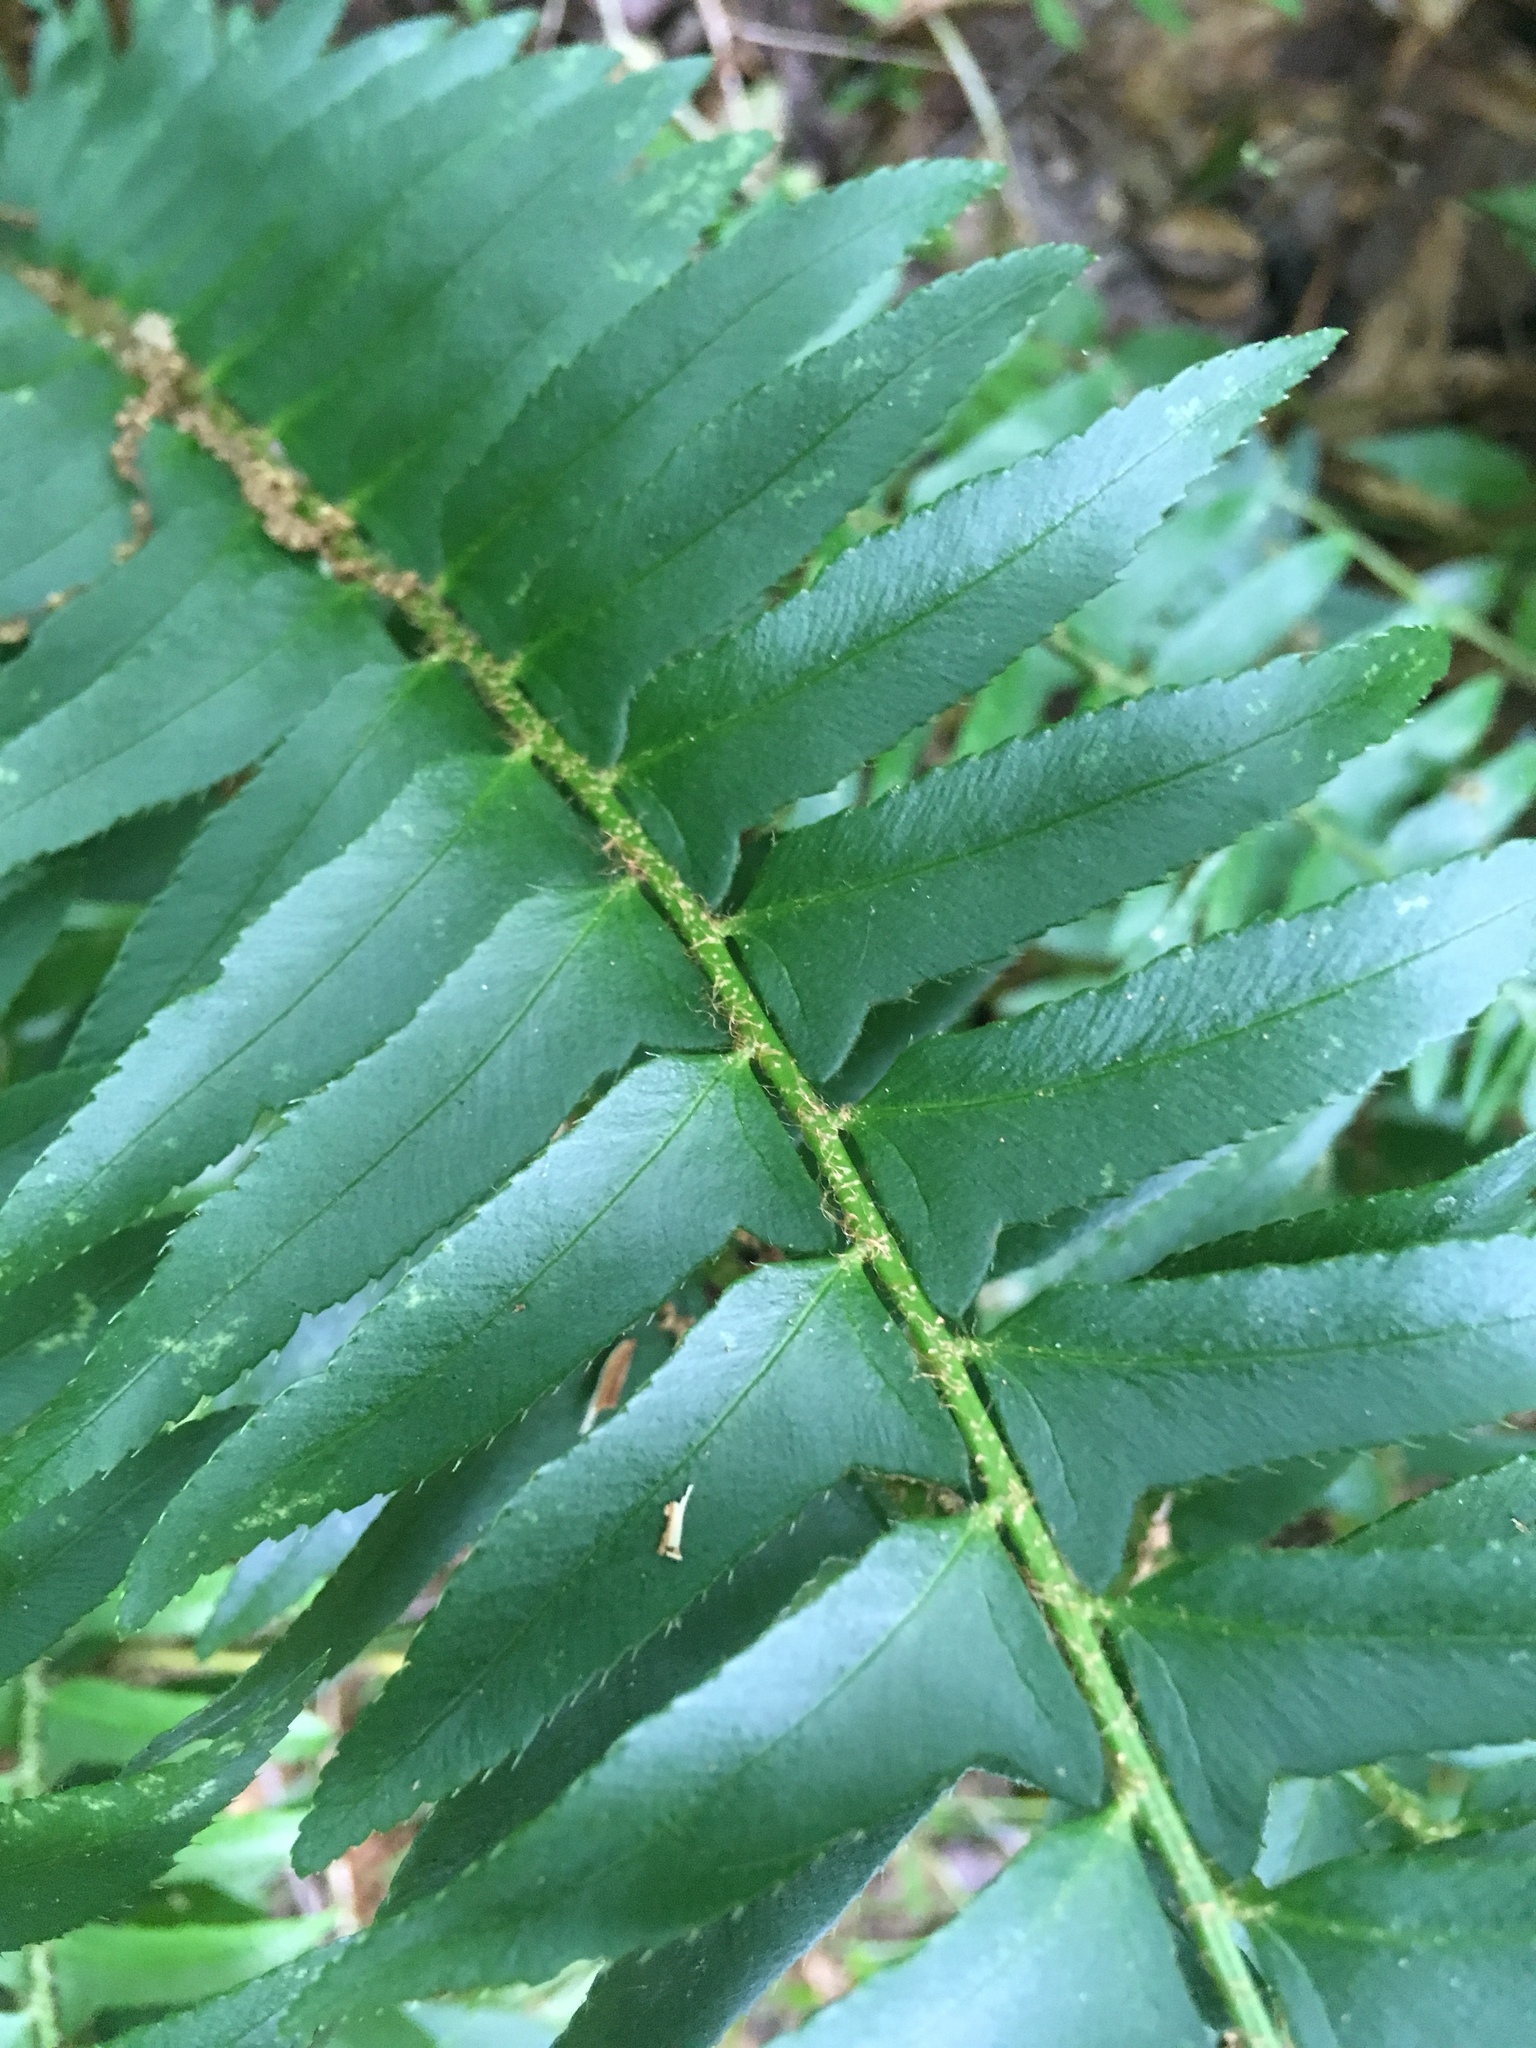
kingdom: Plantae
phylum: Tracheophyta
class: Polypodiopsida
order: Polypodiales
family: Dryopteridaceae
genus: Polystichum
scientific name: Polystichum acrostichoides
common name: Christmas fern
